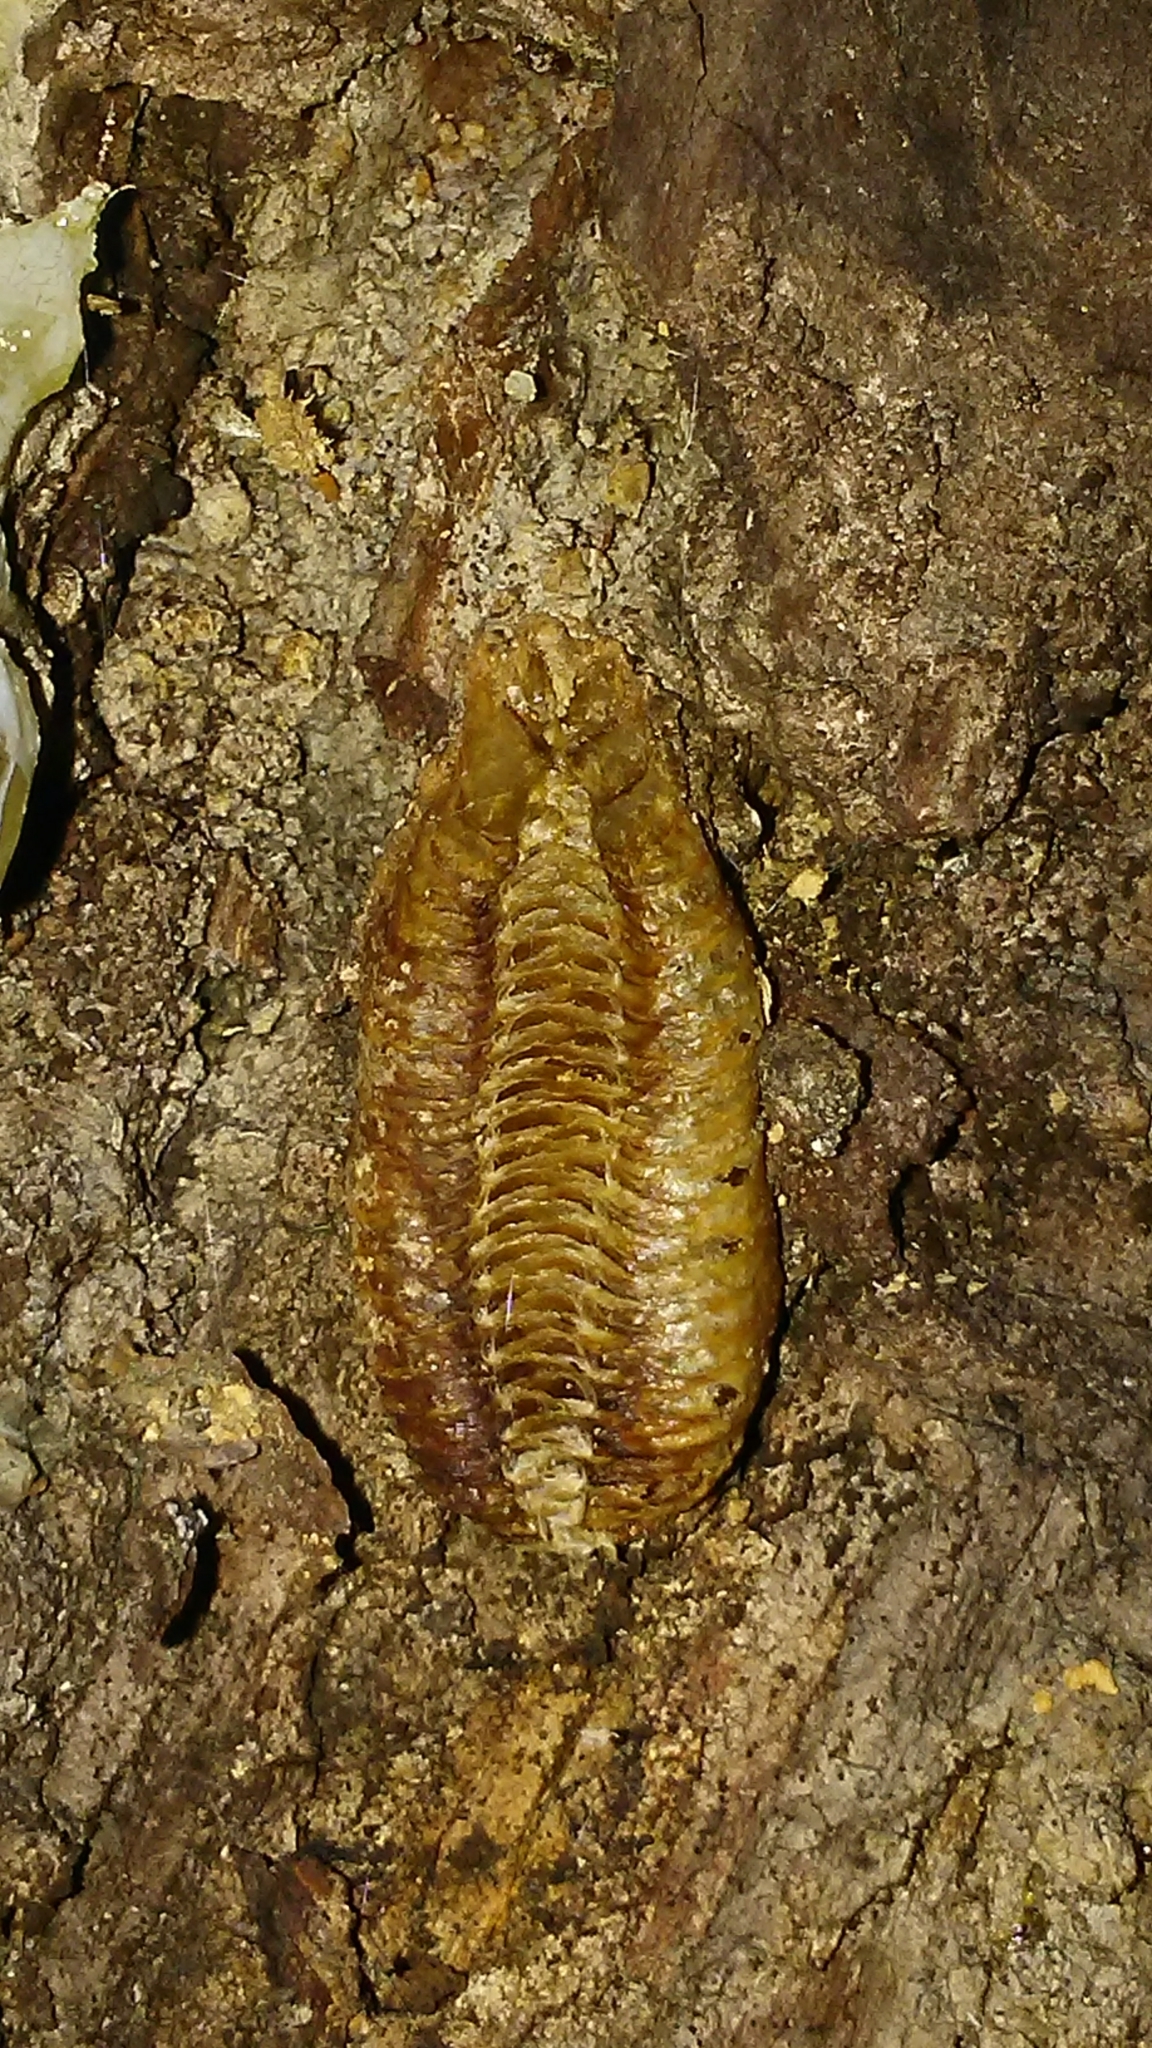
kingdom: Animalia
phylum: Arthropoda
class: Insecta
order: Mantodea
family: Mantidae
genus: Stagmomantis
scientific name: Stagmomantis carolina
